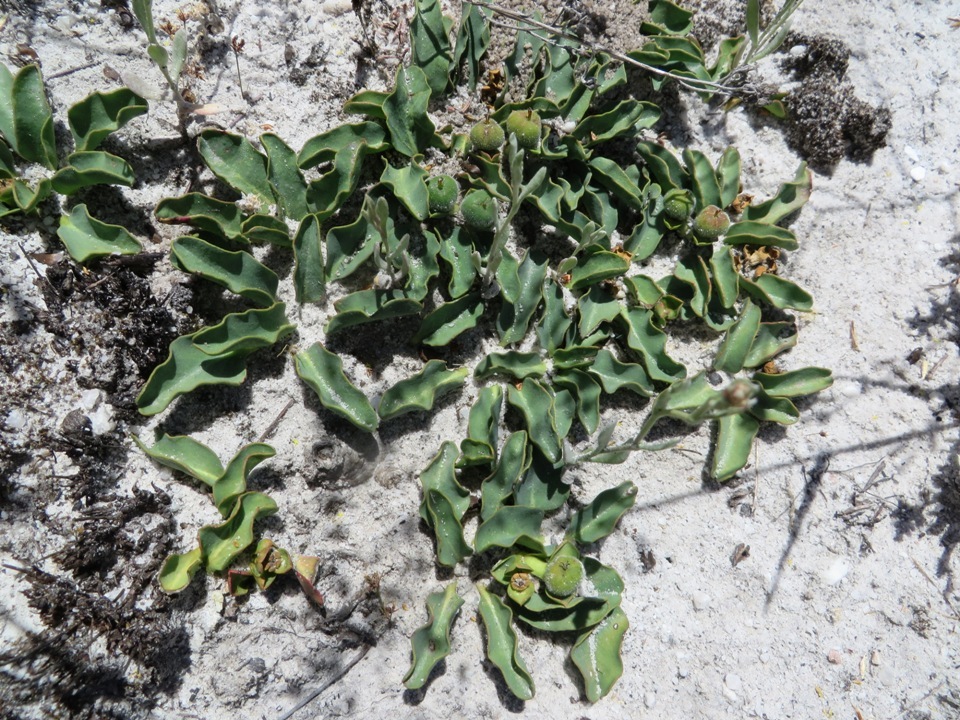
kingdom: Plantae
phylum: Tracheophyta
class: Magnoliopsida
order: Malpighiales
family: Euphorbiaceae
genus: Euphorbia
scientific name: Euphorbia tuberosa
